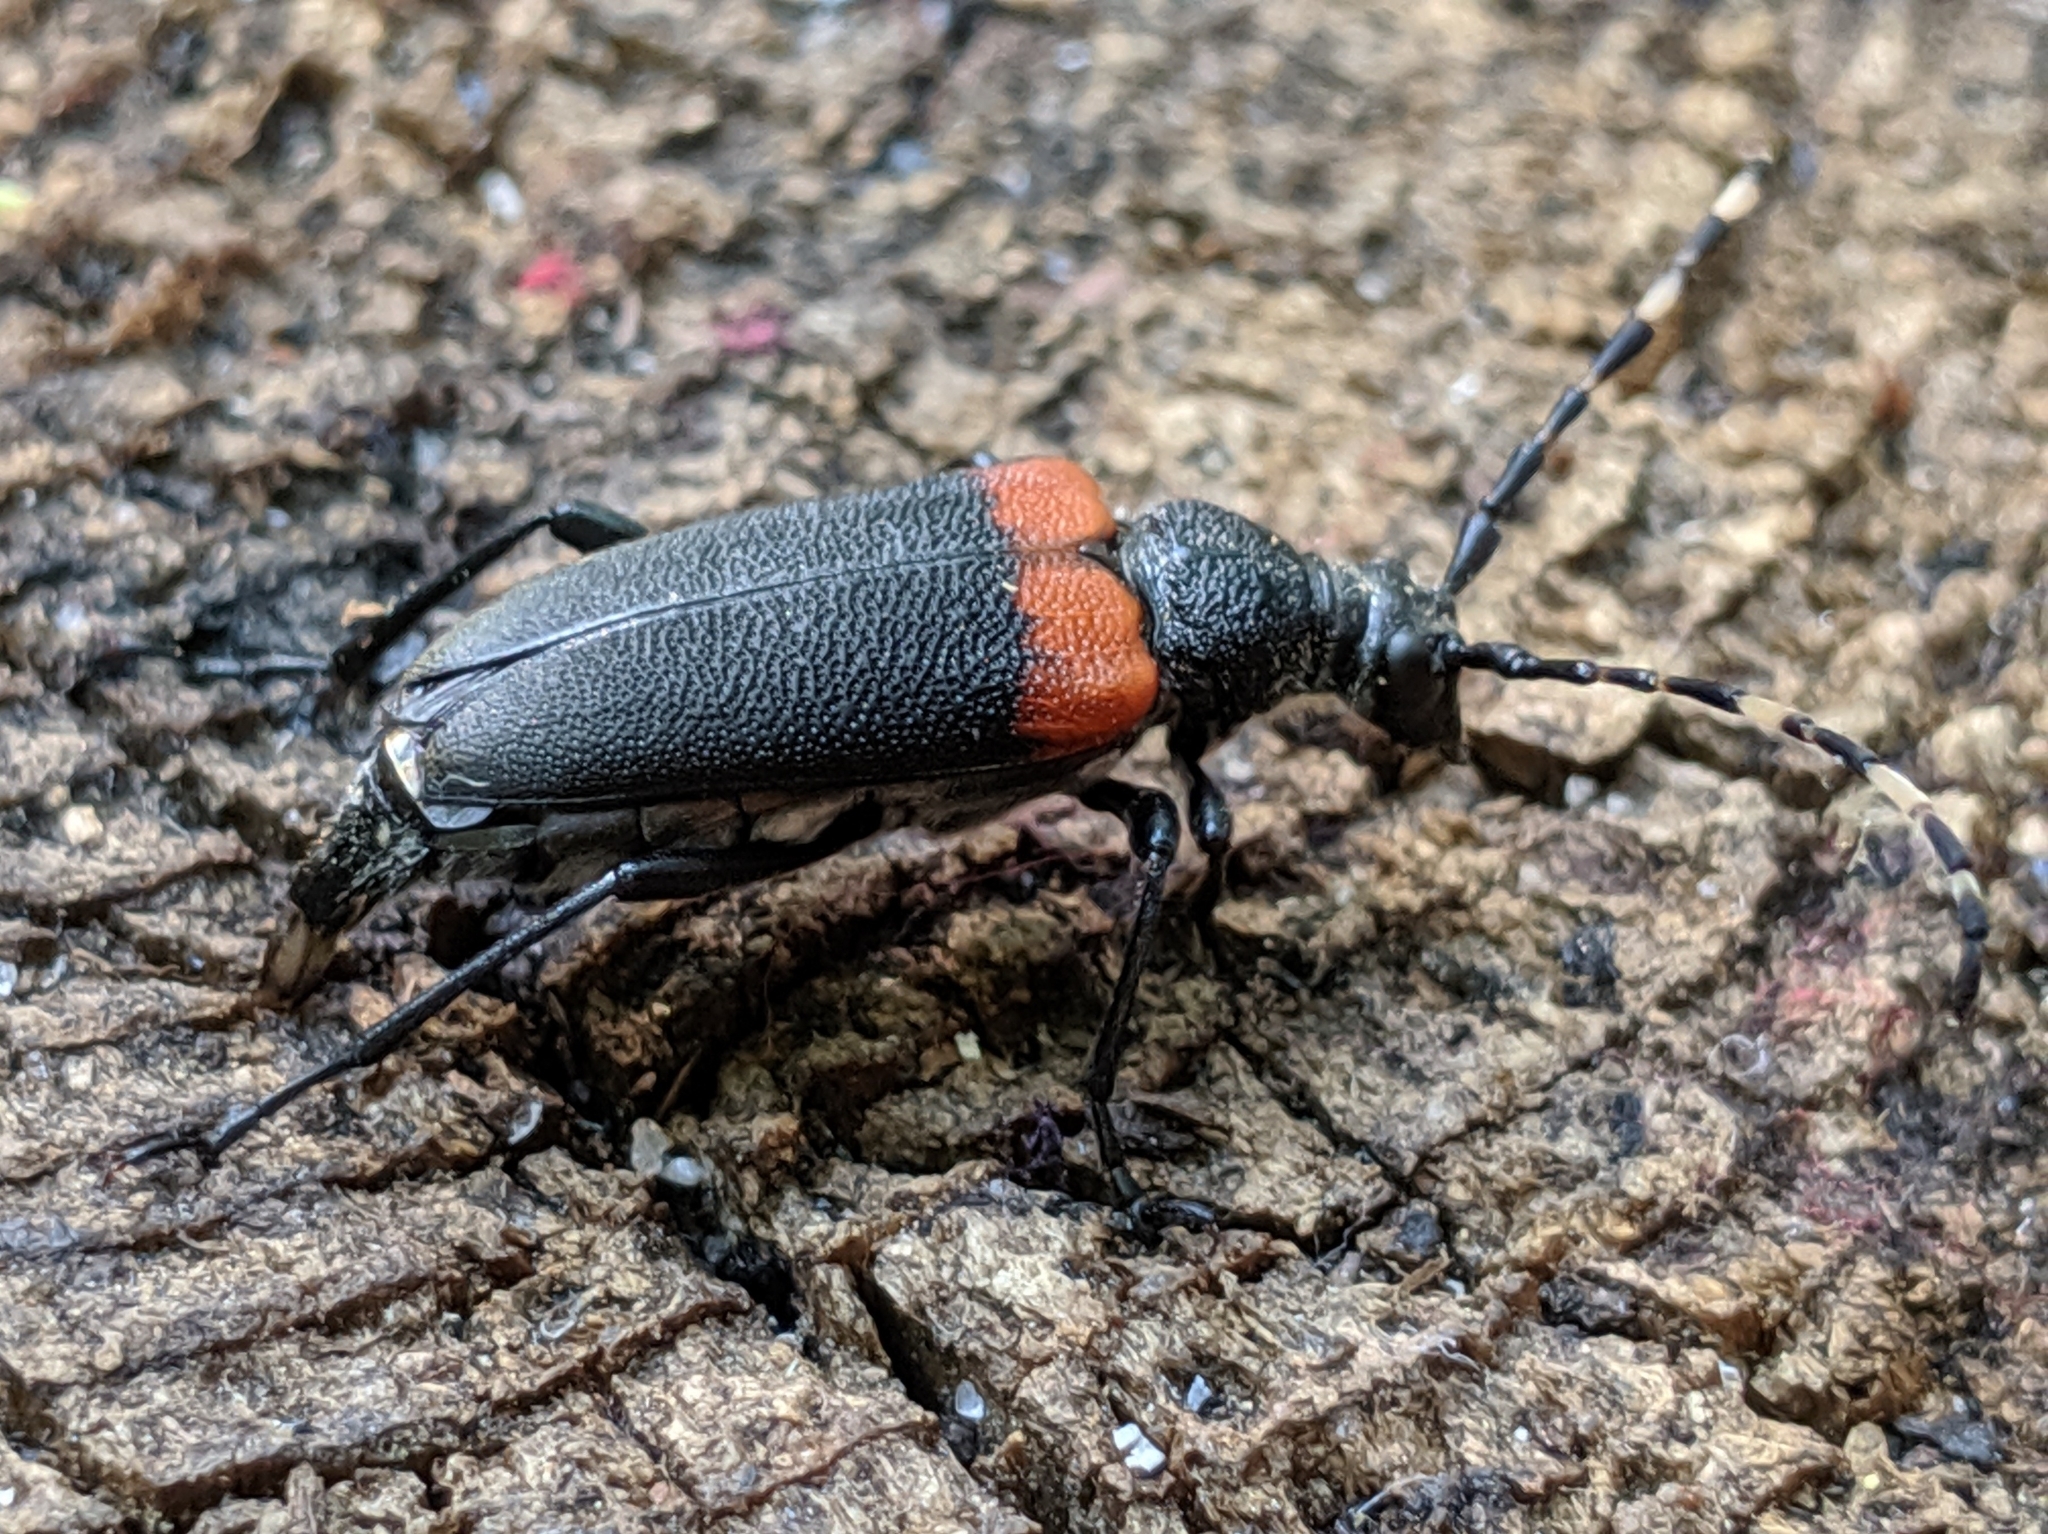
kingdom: Animalia
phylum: Arthropoda
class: Insecta
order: Coleoptera
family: Cerambycidae
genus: Stictoleptura
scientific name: Stictoleptura canadensis
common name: Red-shouldered pine borer
